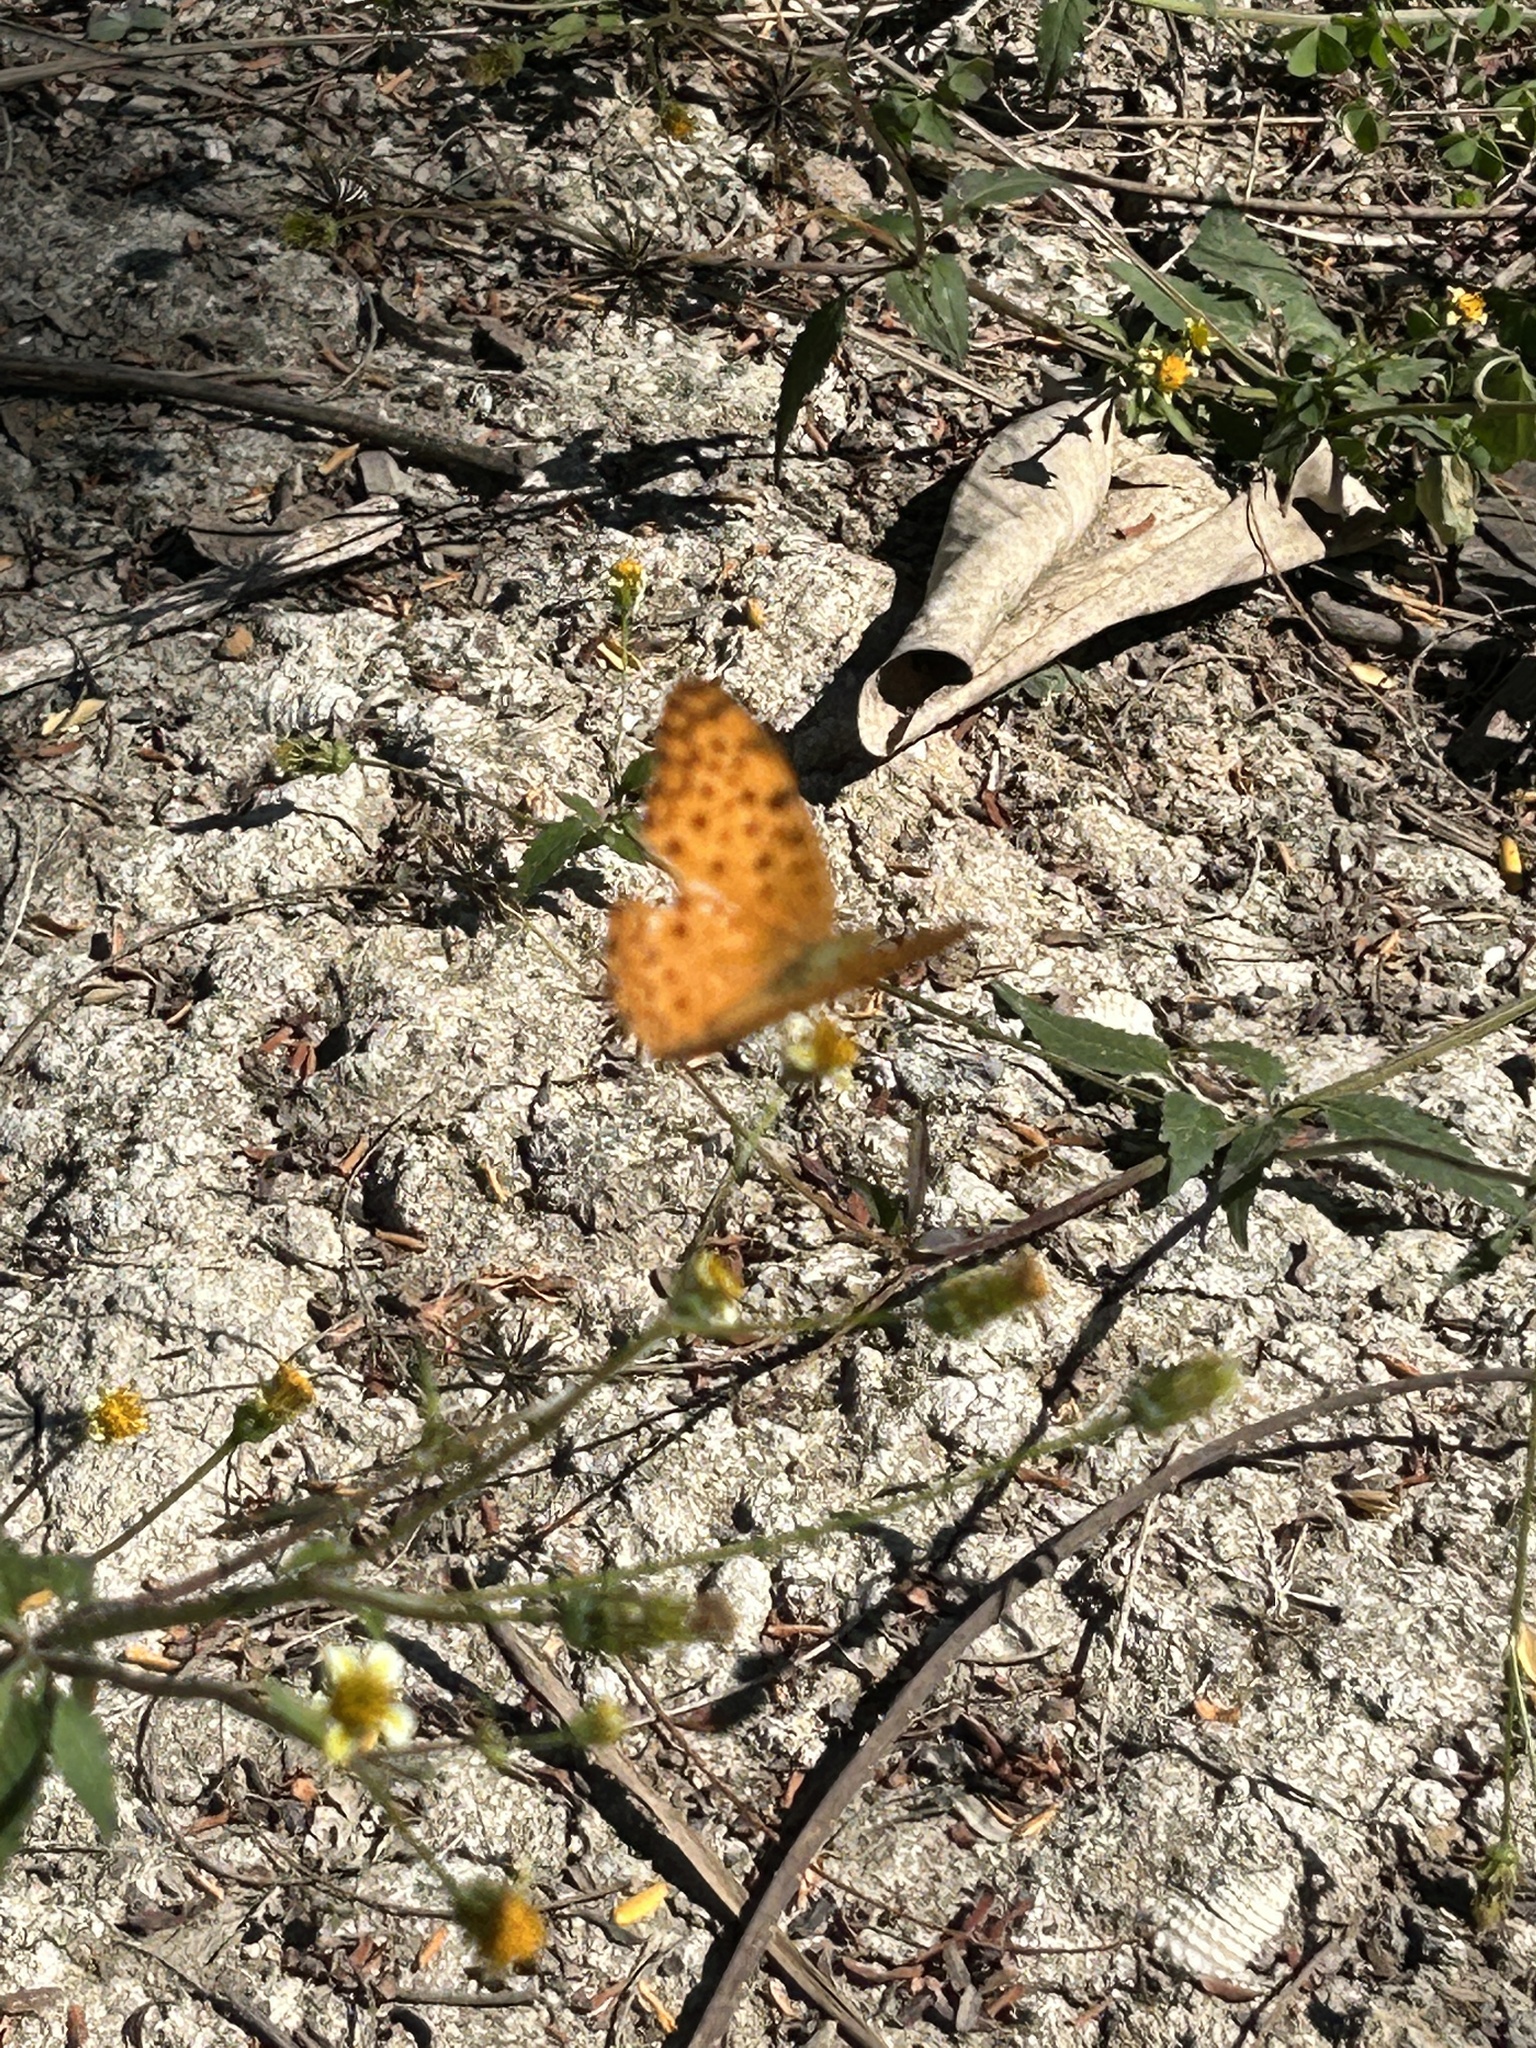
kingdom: Animalia
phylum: Arthropoda
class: Insecta
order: Lepidoptera
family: Nymphalidae
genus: Phalanta
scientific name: Phalanta phalantha
